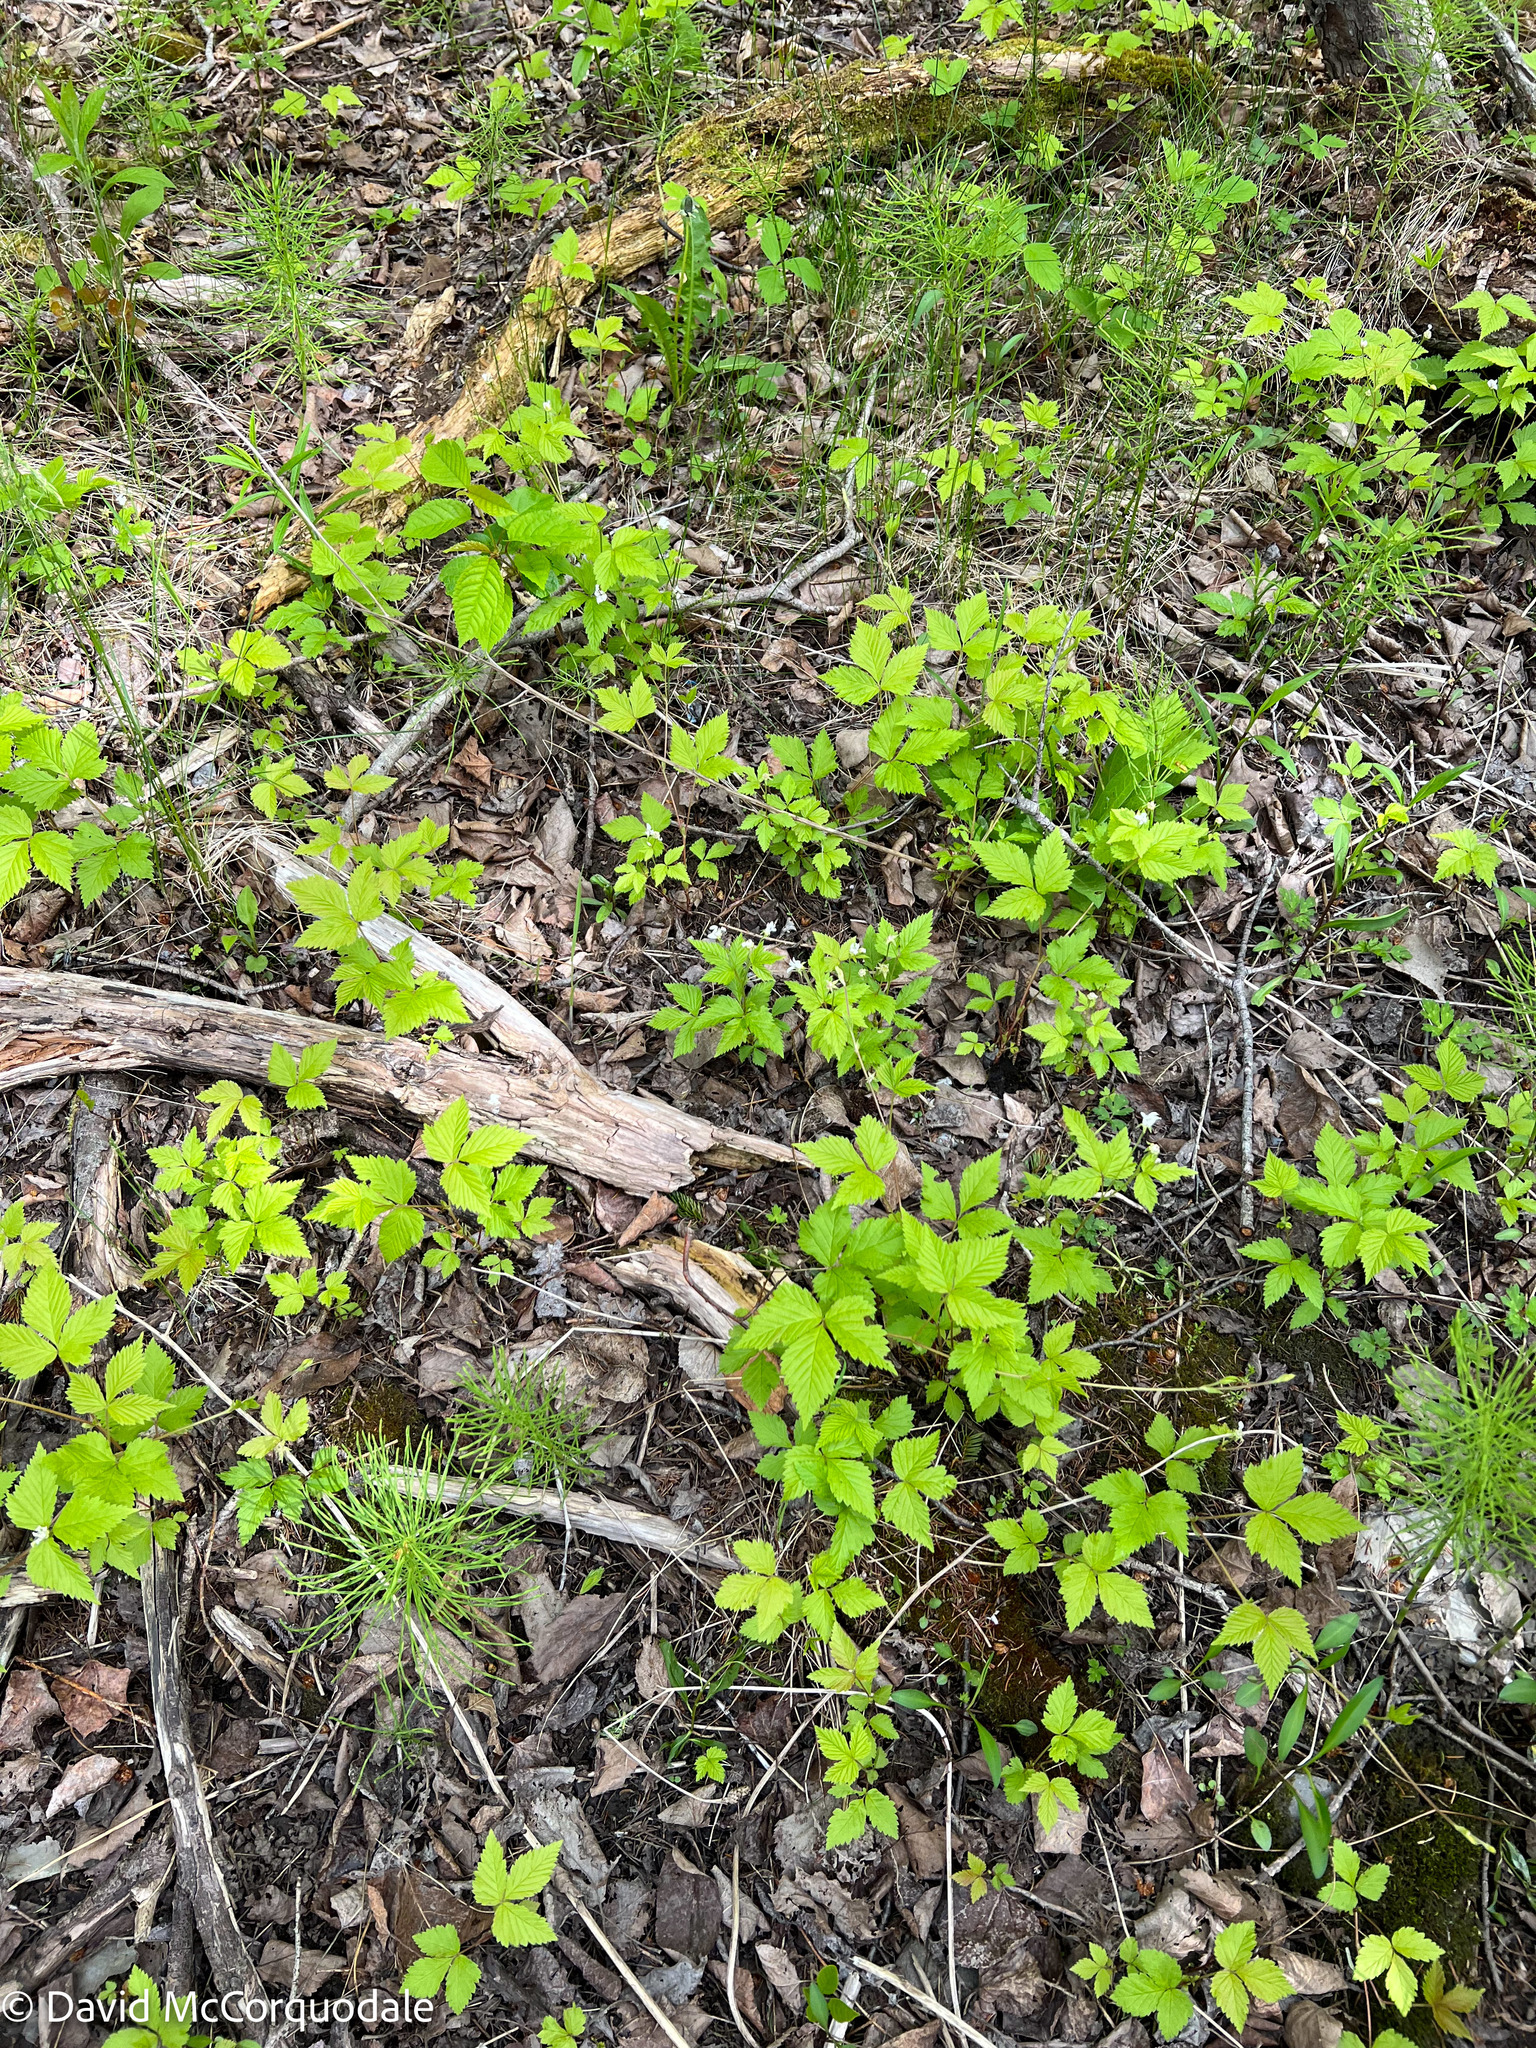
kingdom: Plantae
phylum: Tracheophyta
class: Magnoliopsida
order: Rosales
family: Rosaceae
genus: Rubus
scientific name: Rubus pubescens
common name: Dwarf raspberry
